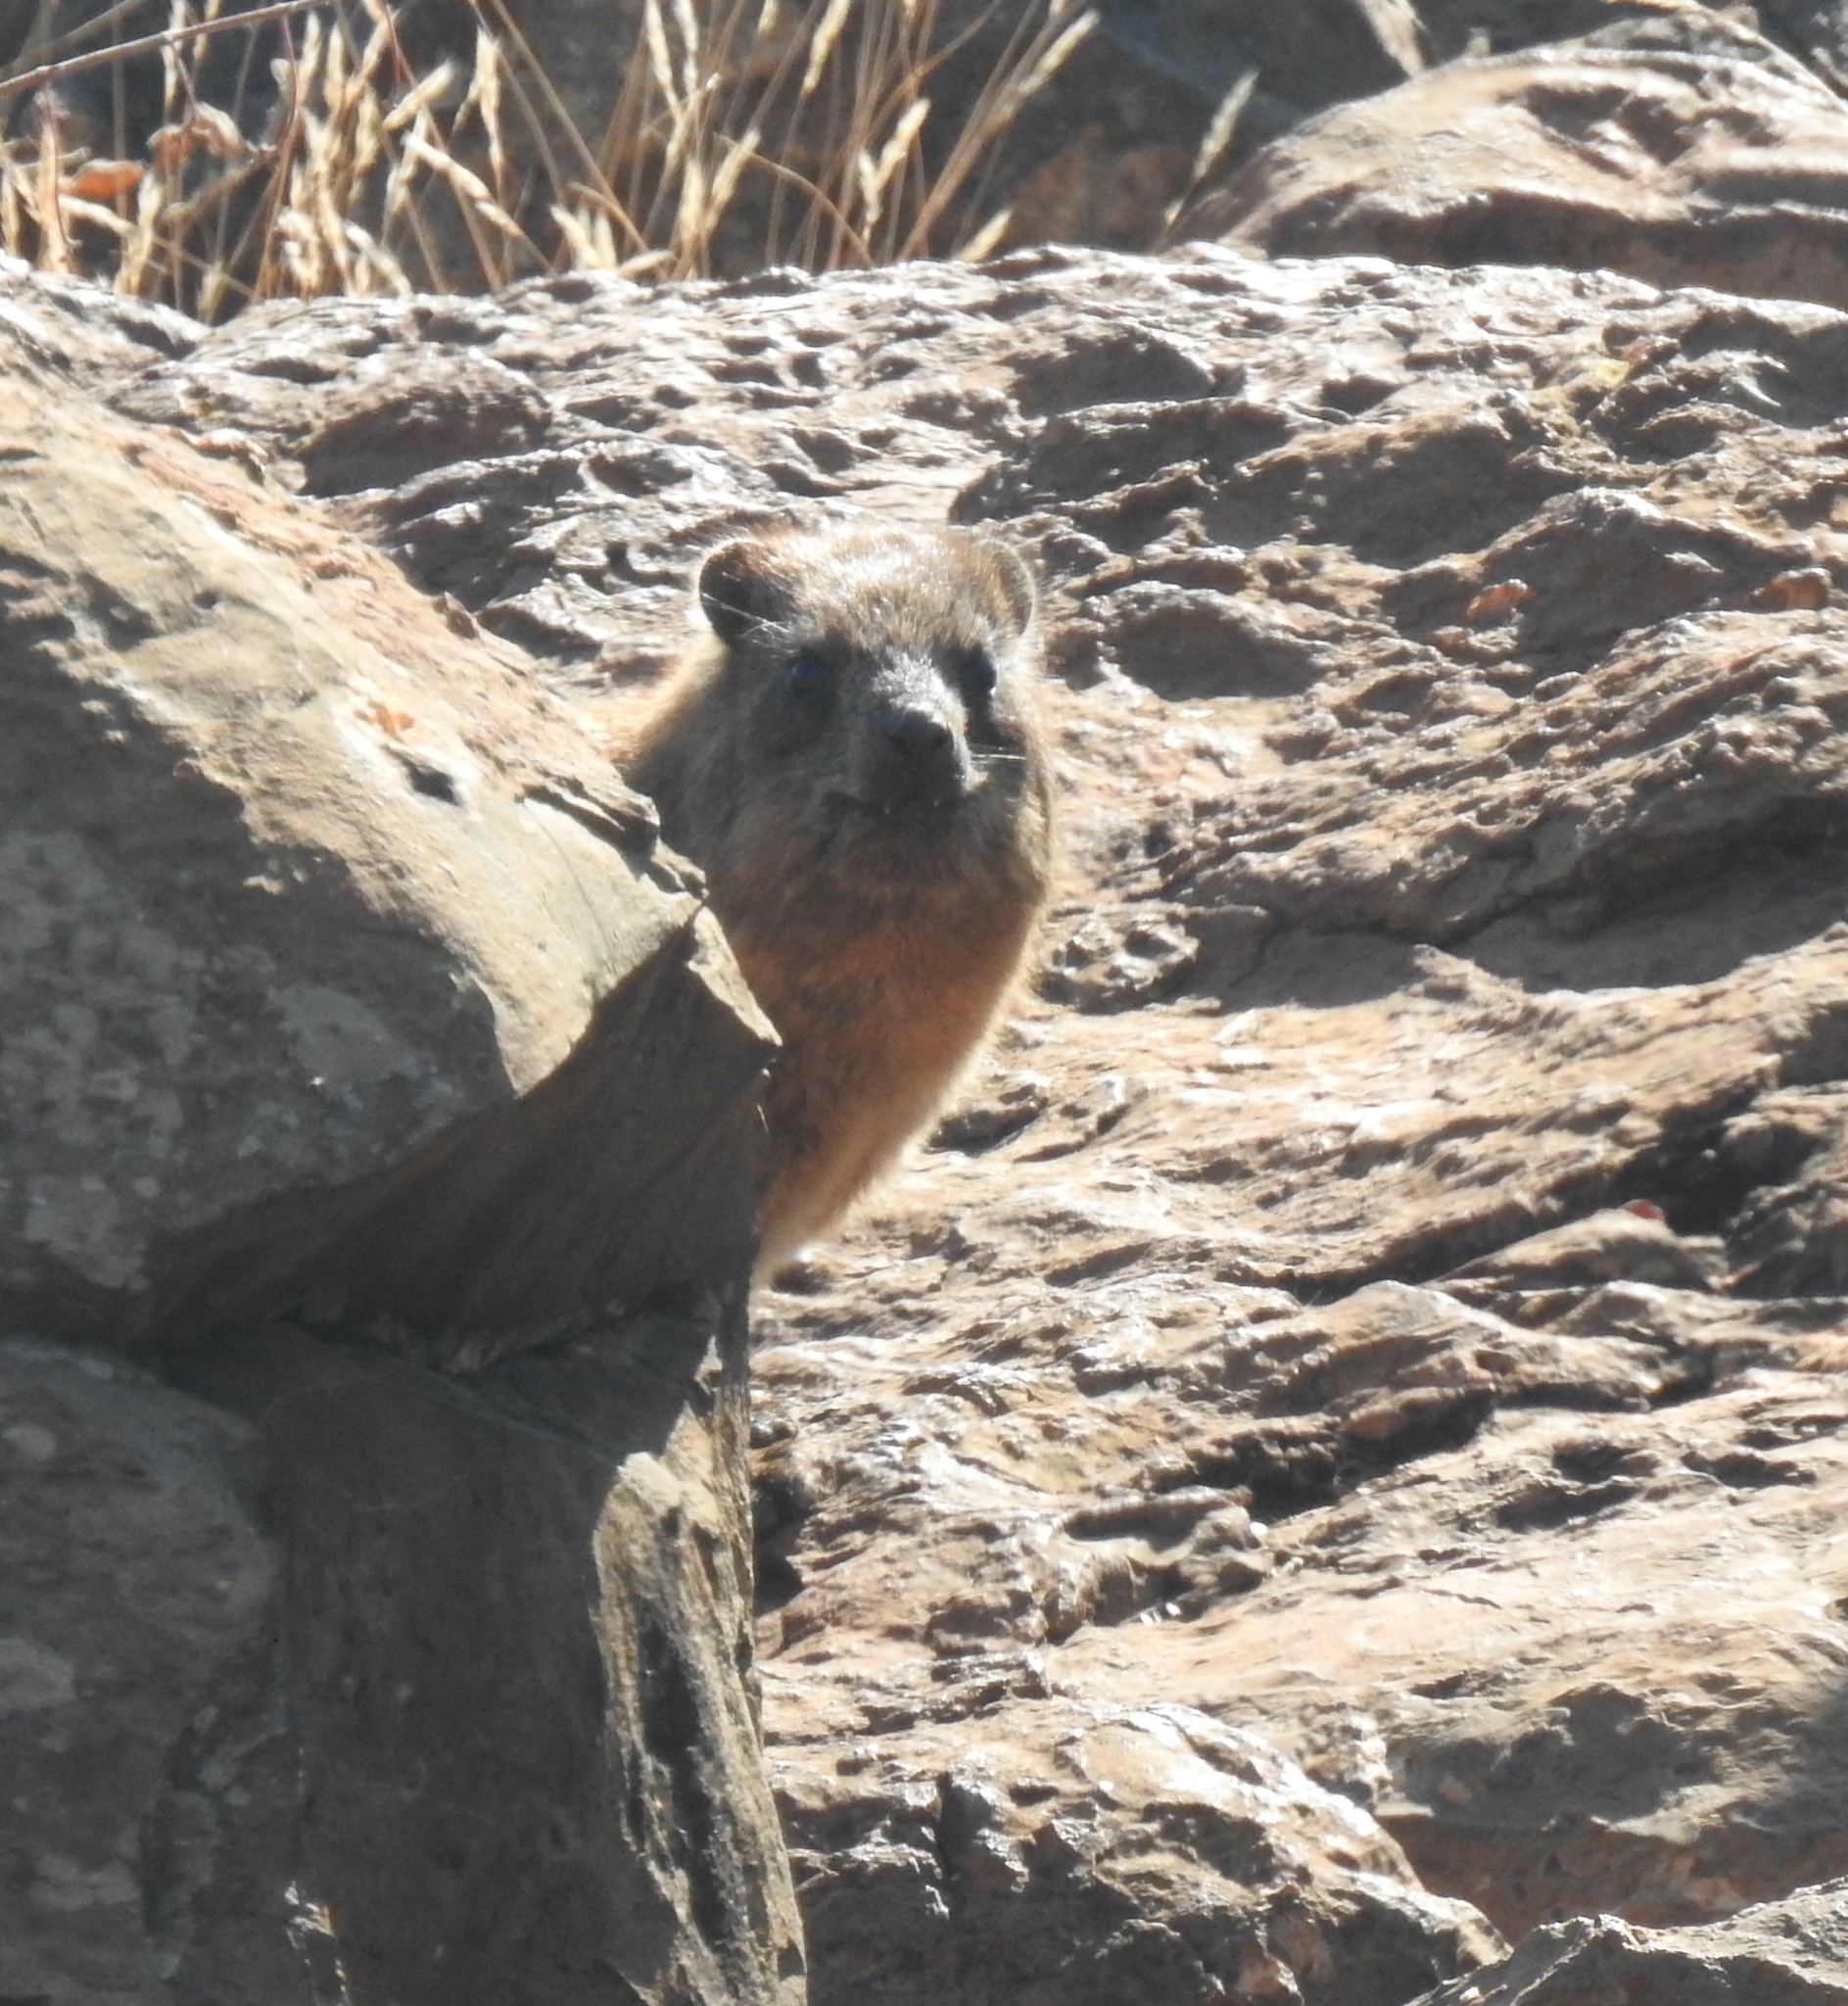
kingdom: Animalia
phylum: Chordata
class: Mammalia
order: Hyracoidea
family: Procaviidae
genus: Procavia
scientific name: Procavia capensis
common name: Rock hyrax
